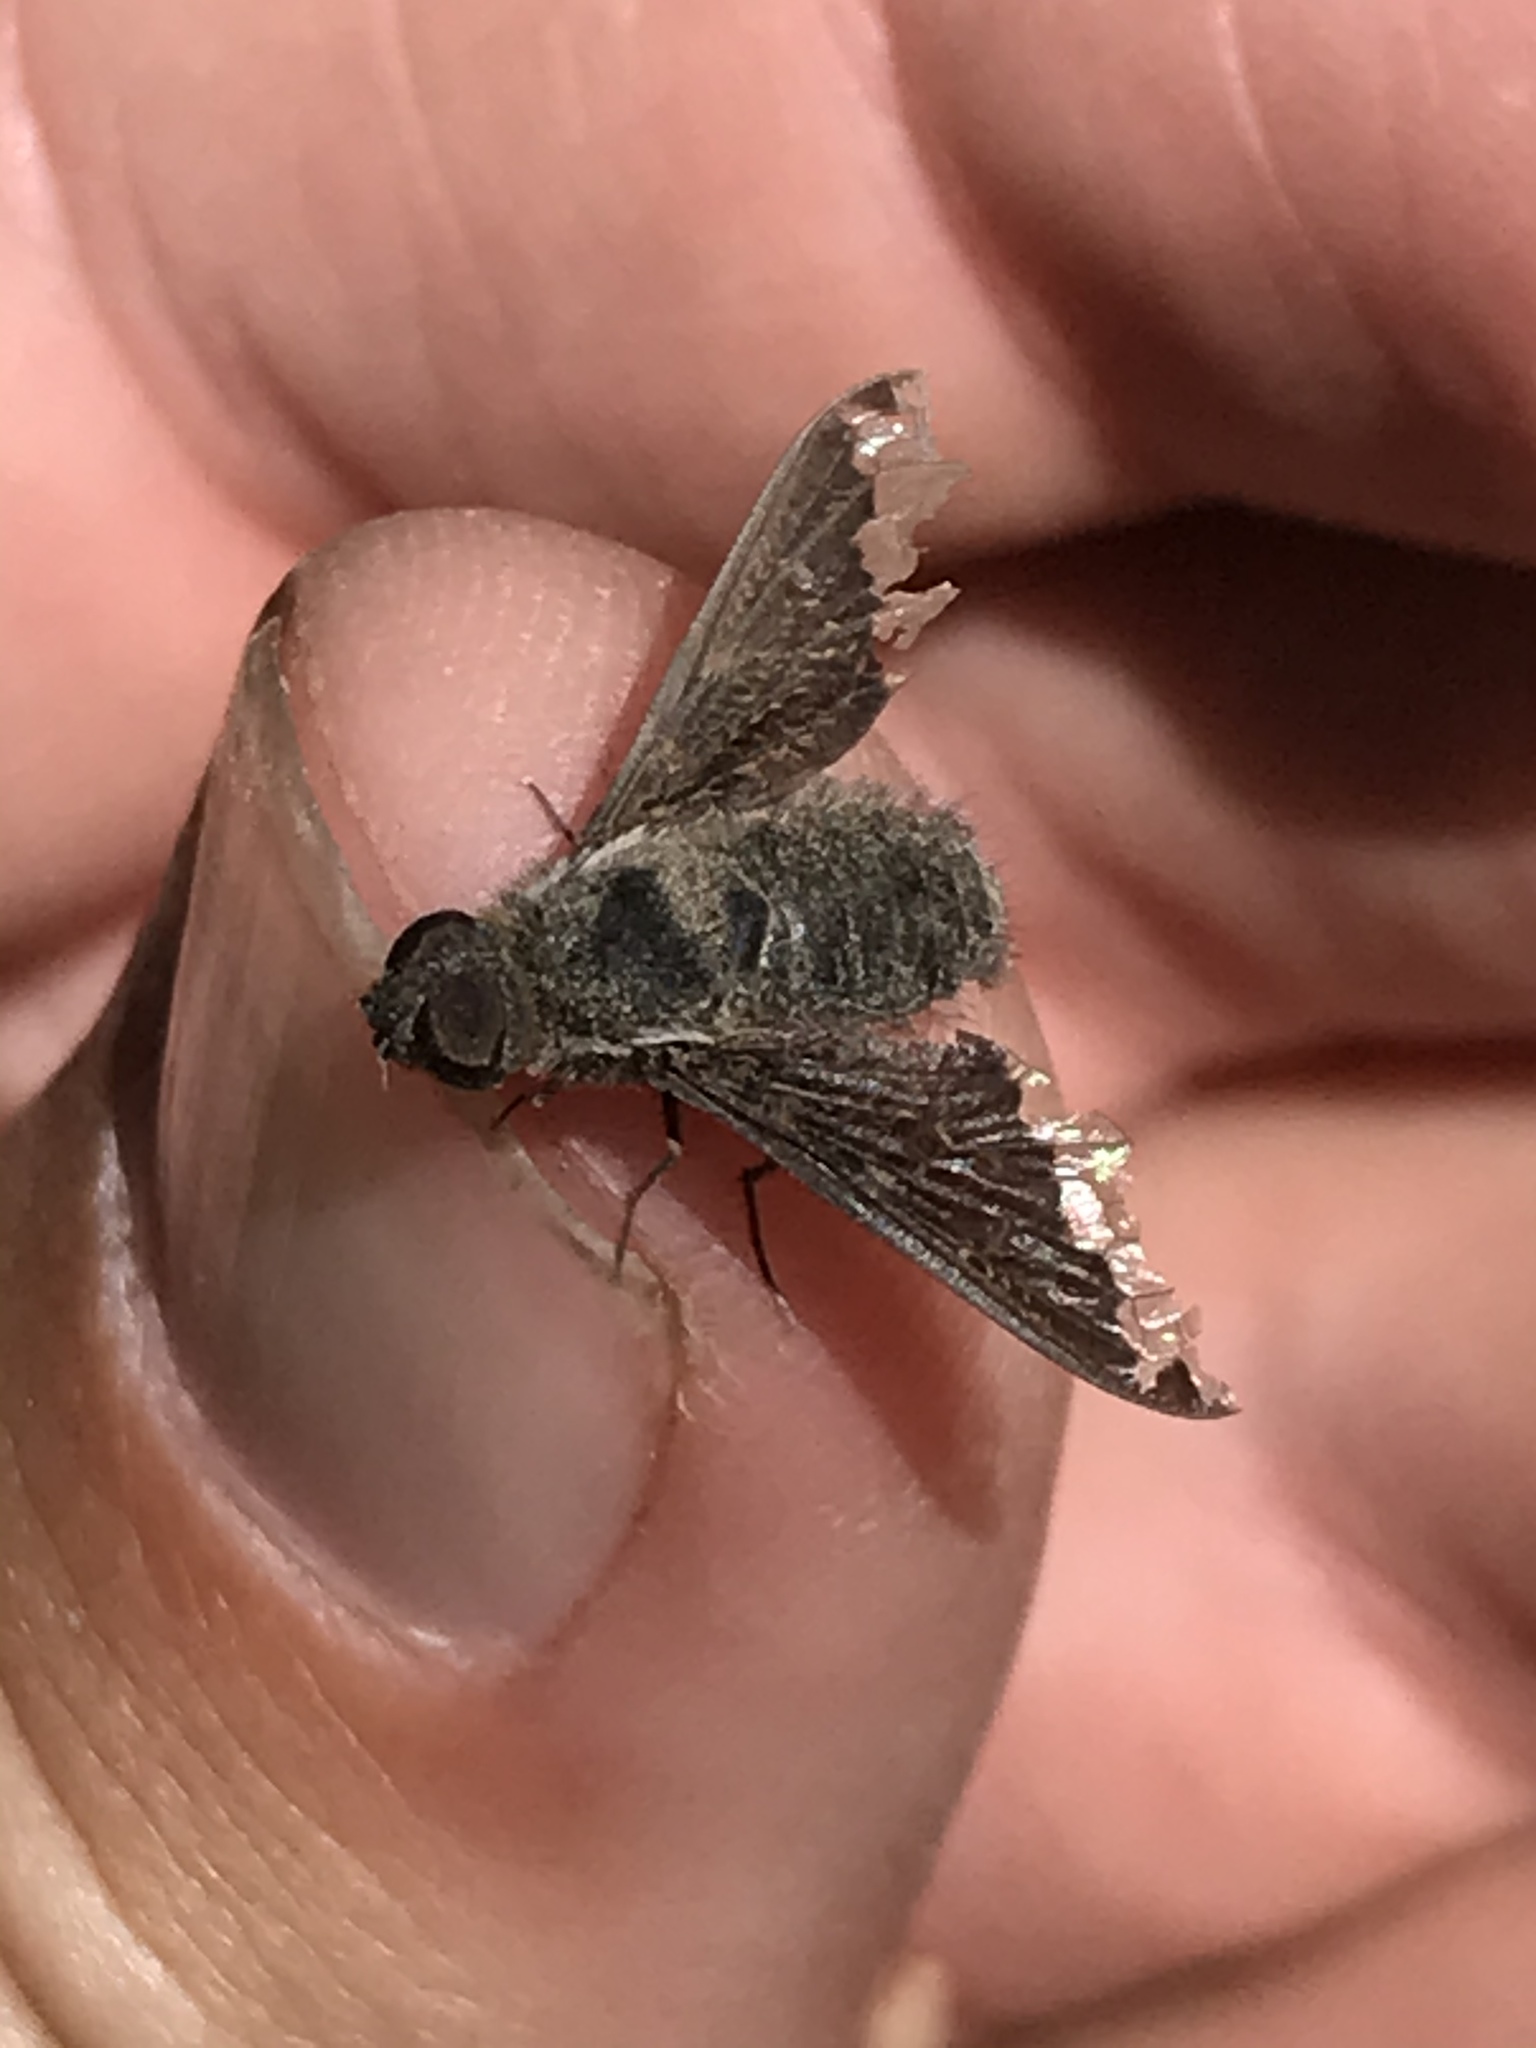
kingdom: Animalia
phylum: Arthropoda
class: Insecta
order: Diptera
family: Bombyliidae
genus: Hemipenthes
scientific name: Hemipenthes jaennickeana
